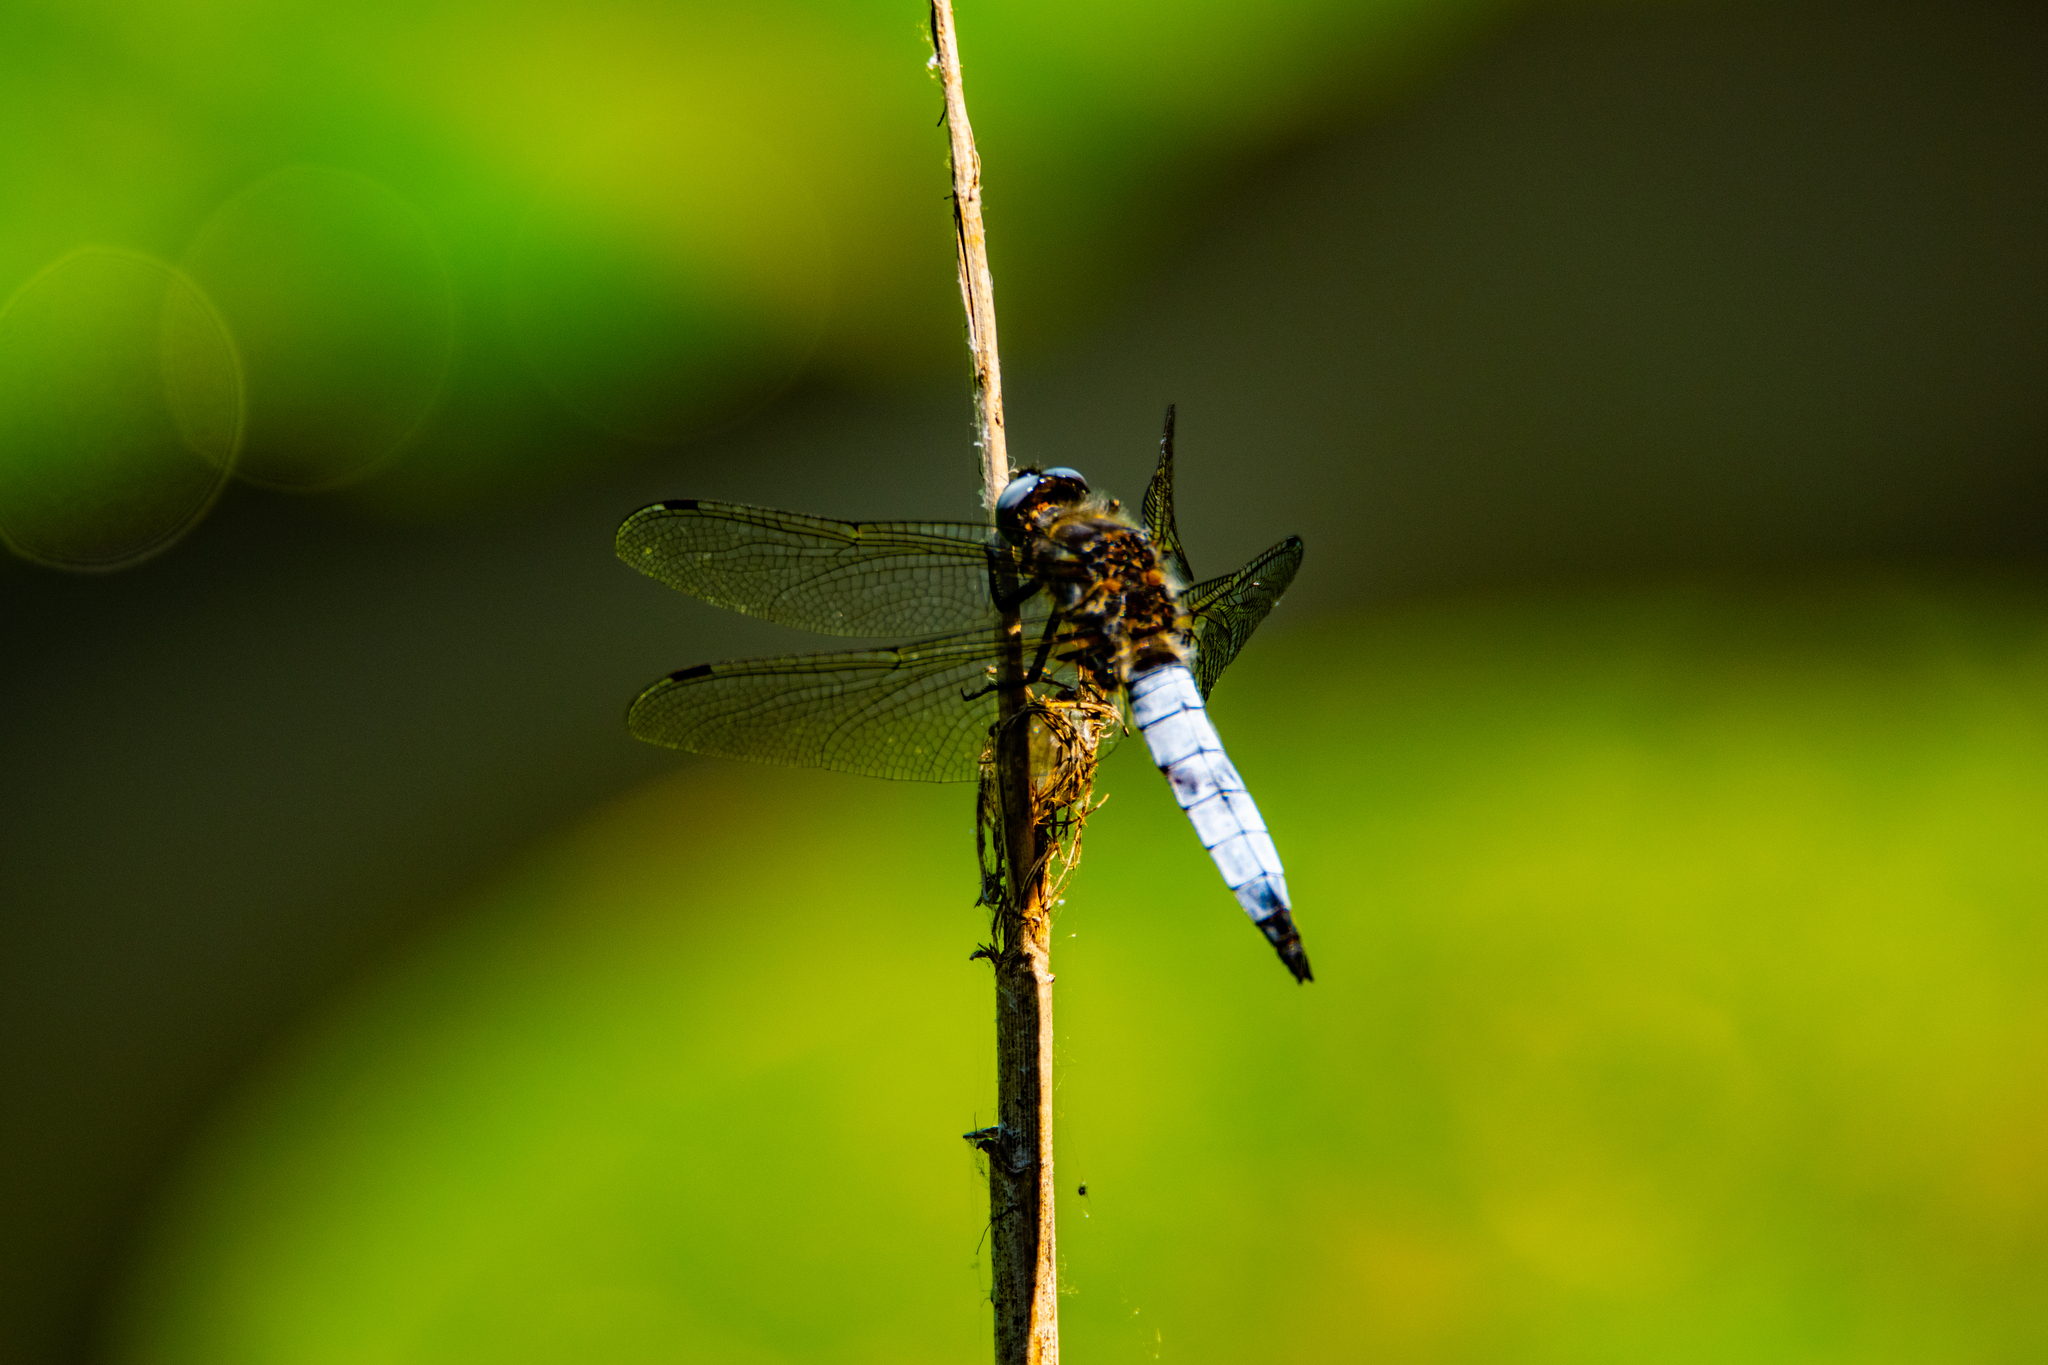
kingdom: Animalia
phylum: Arthropoda
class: Insecta
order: Odonata
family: Libellulidae
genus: Libellula
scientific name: Libellula fulva
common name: Blue chaser
